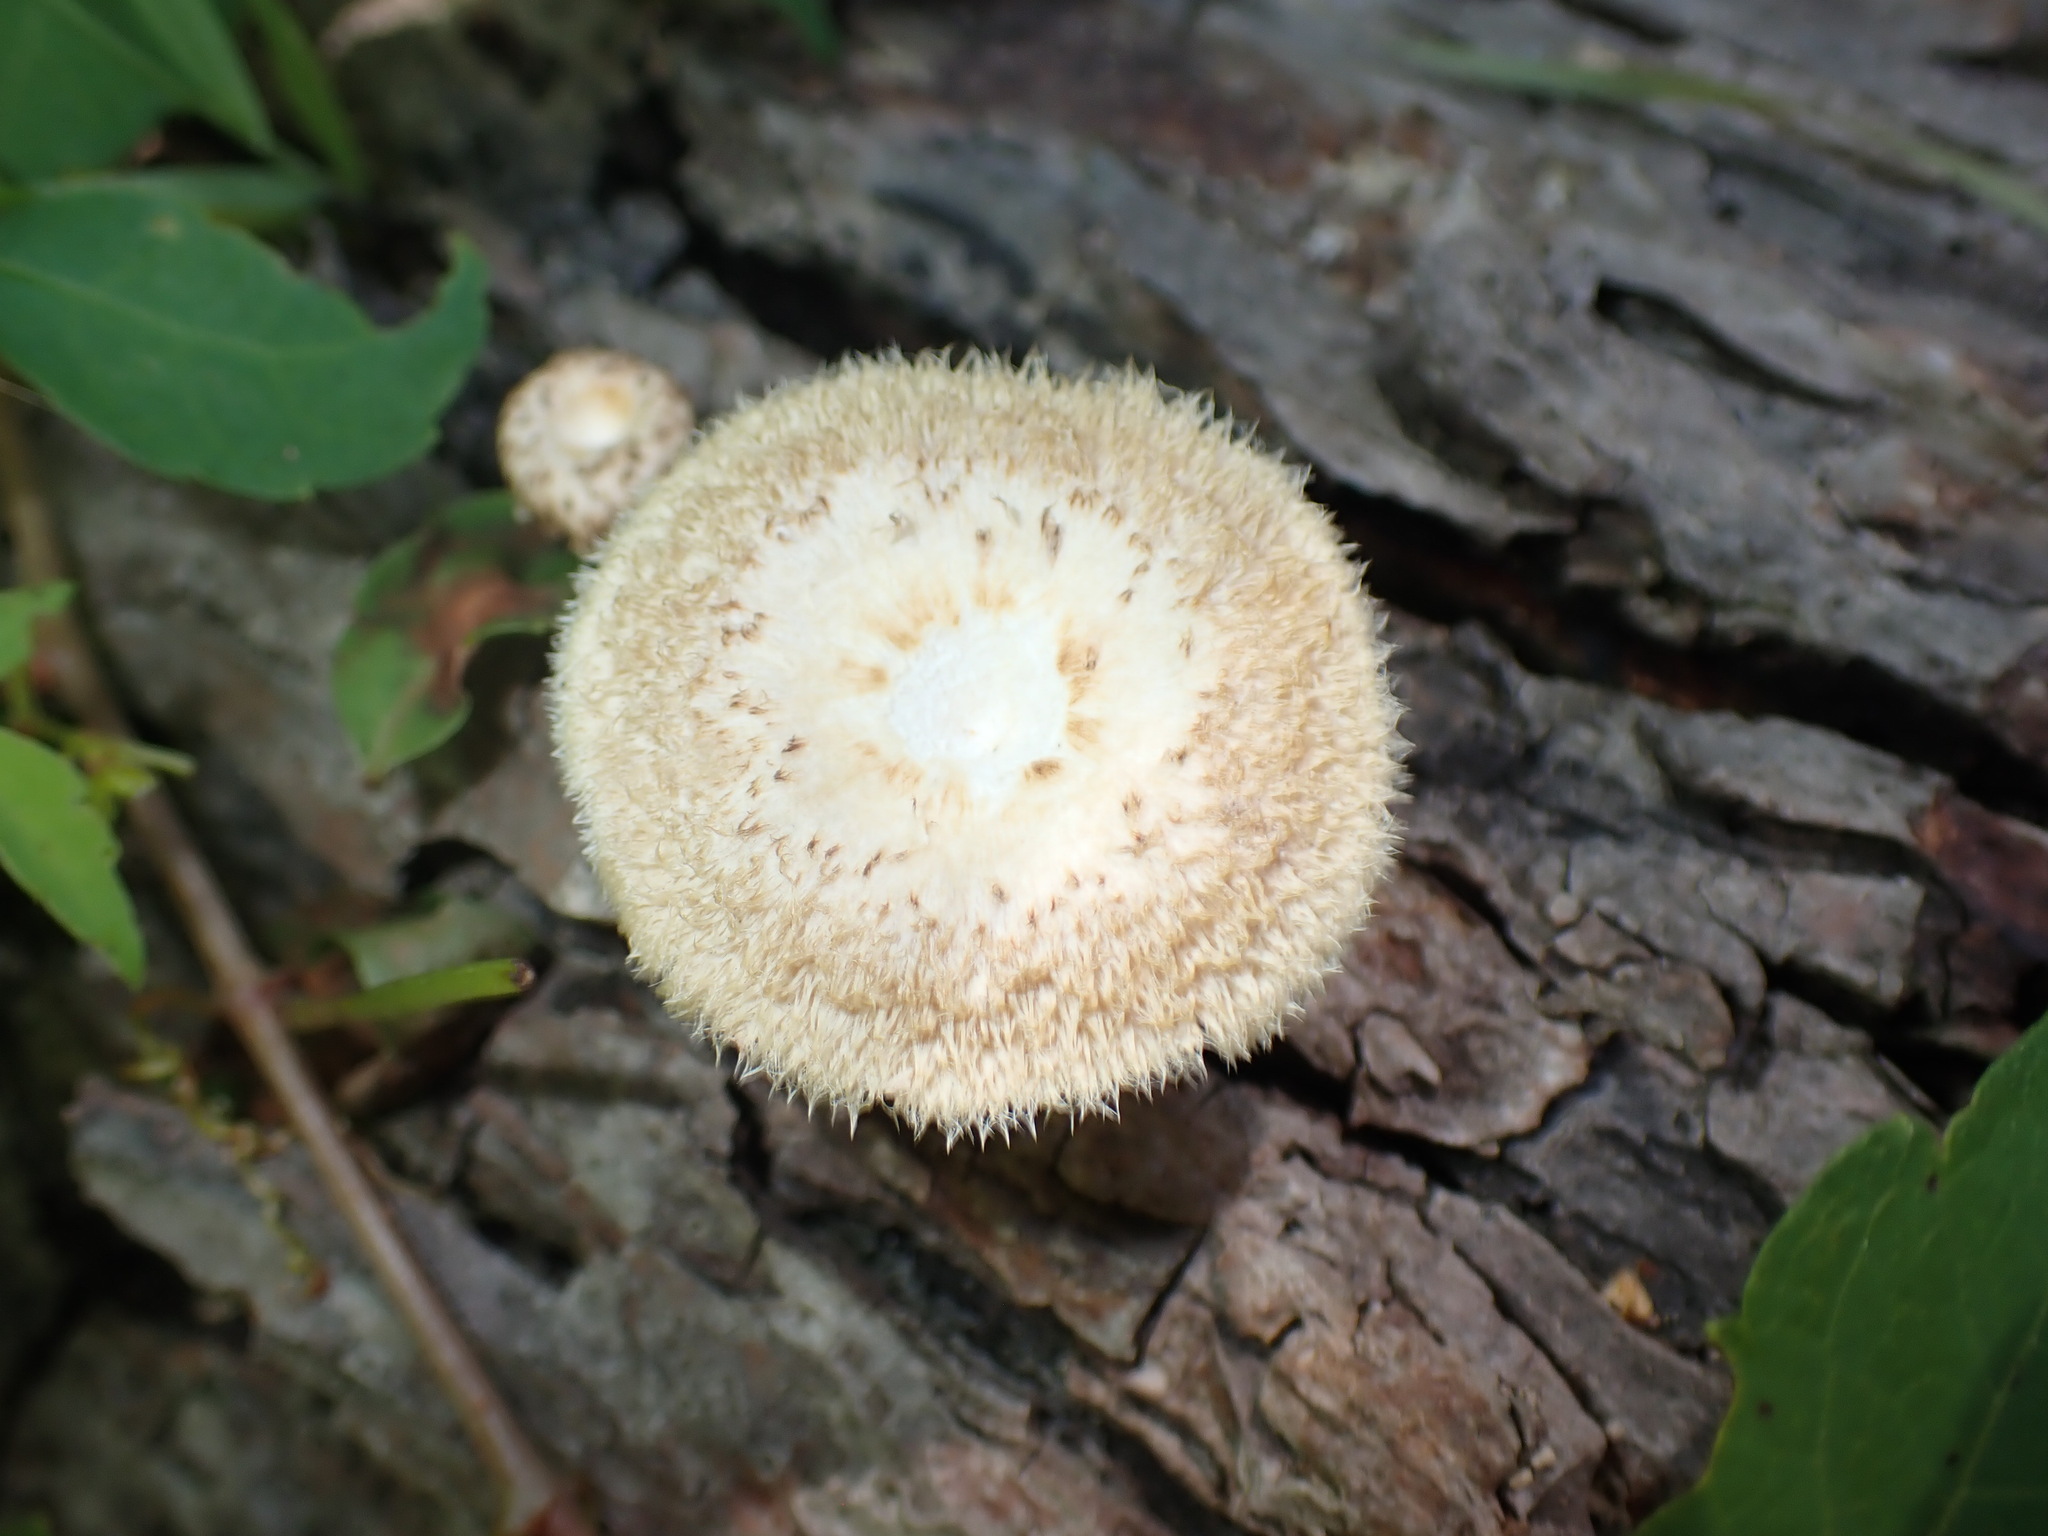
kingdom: Fungi
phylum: Basidiomycota
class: Agaricomycetes
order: Polyporales
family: Polyporaceae
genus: Lentinus
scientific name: Lentinus crinitus
